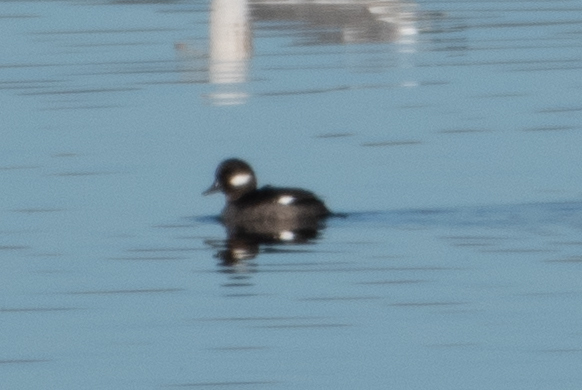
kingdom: Animalia
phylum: Chordata
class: Aves
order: Anseriformes
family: Anatidae
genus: Bucephala
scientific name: Bucephala albeola
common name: Bufflehead
